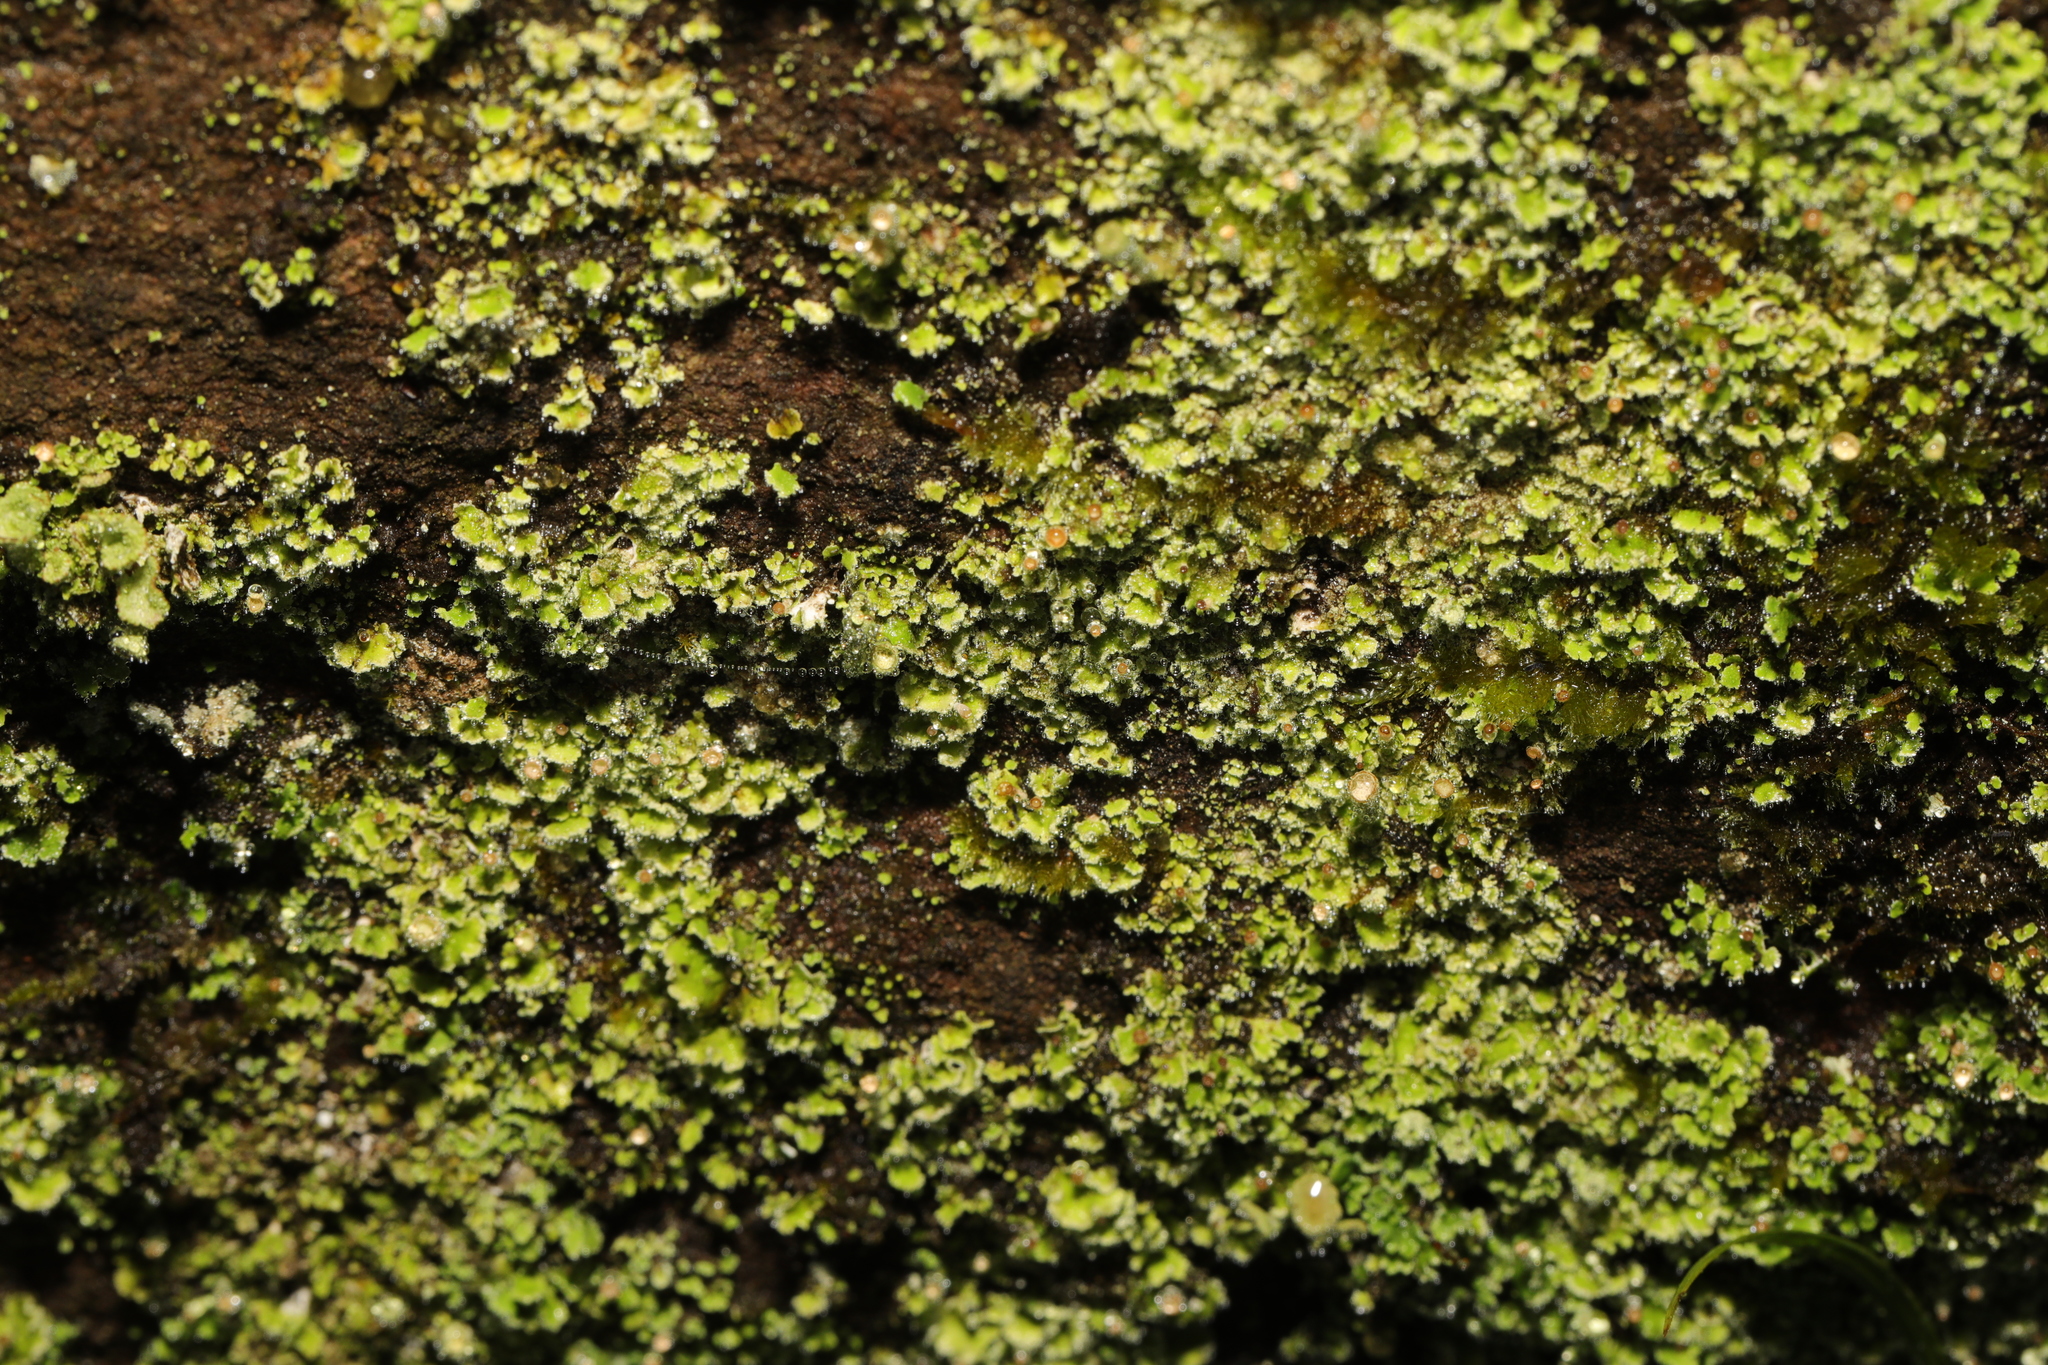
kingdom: Fungi
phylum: Ascomycota
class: Lecanoromycetes
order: Lecanorales
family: Cladoniaceae
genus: Cladonia
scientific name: Cladonia
